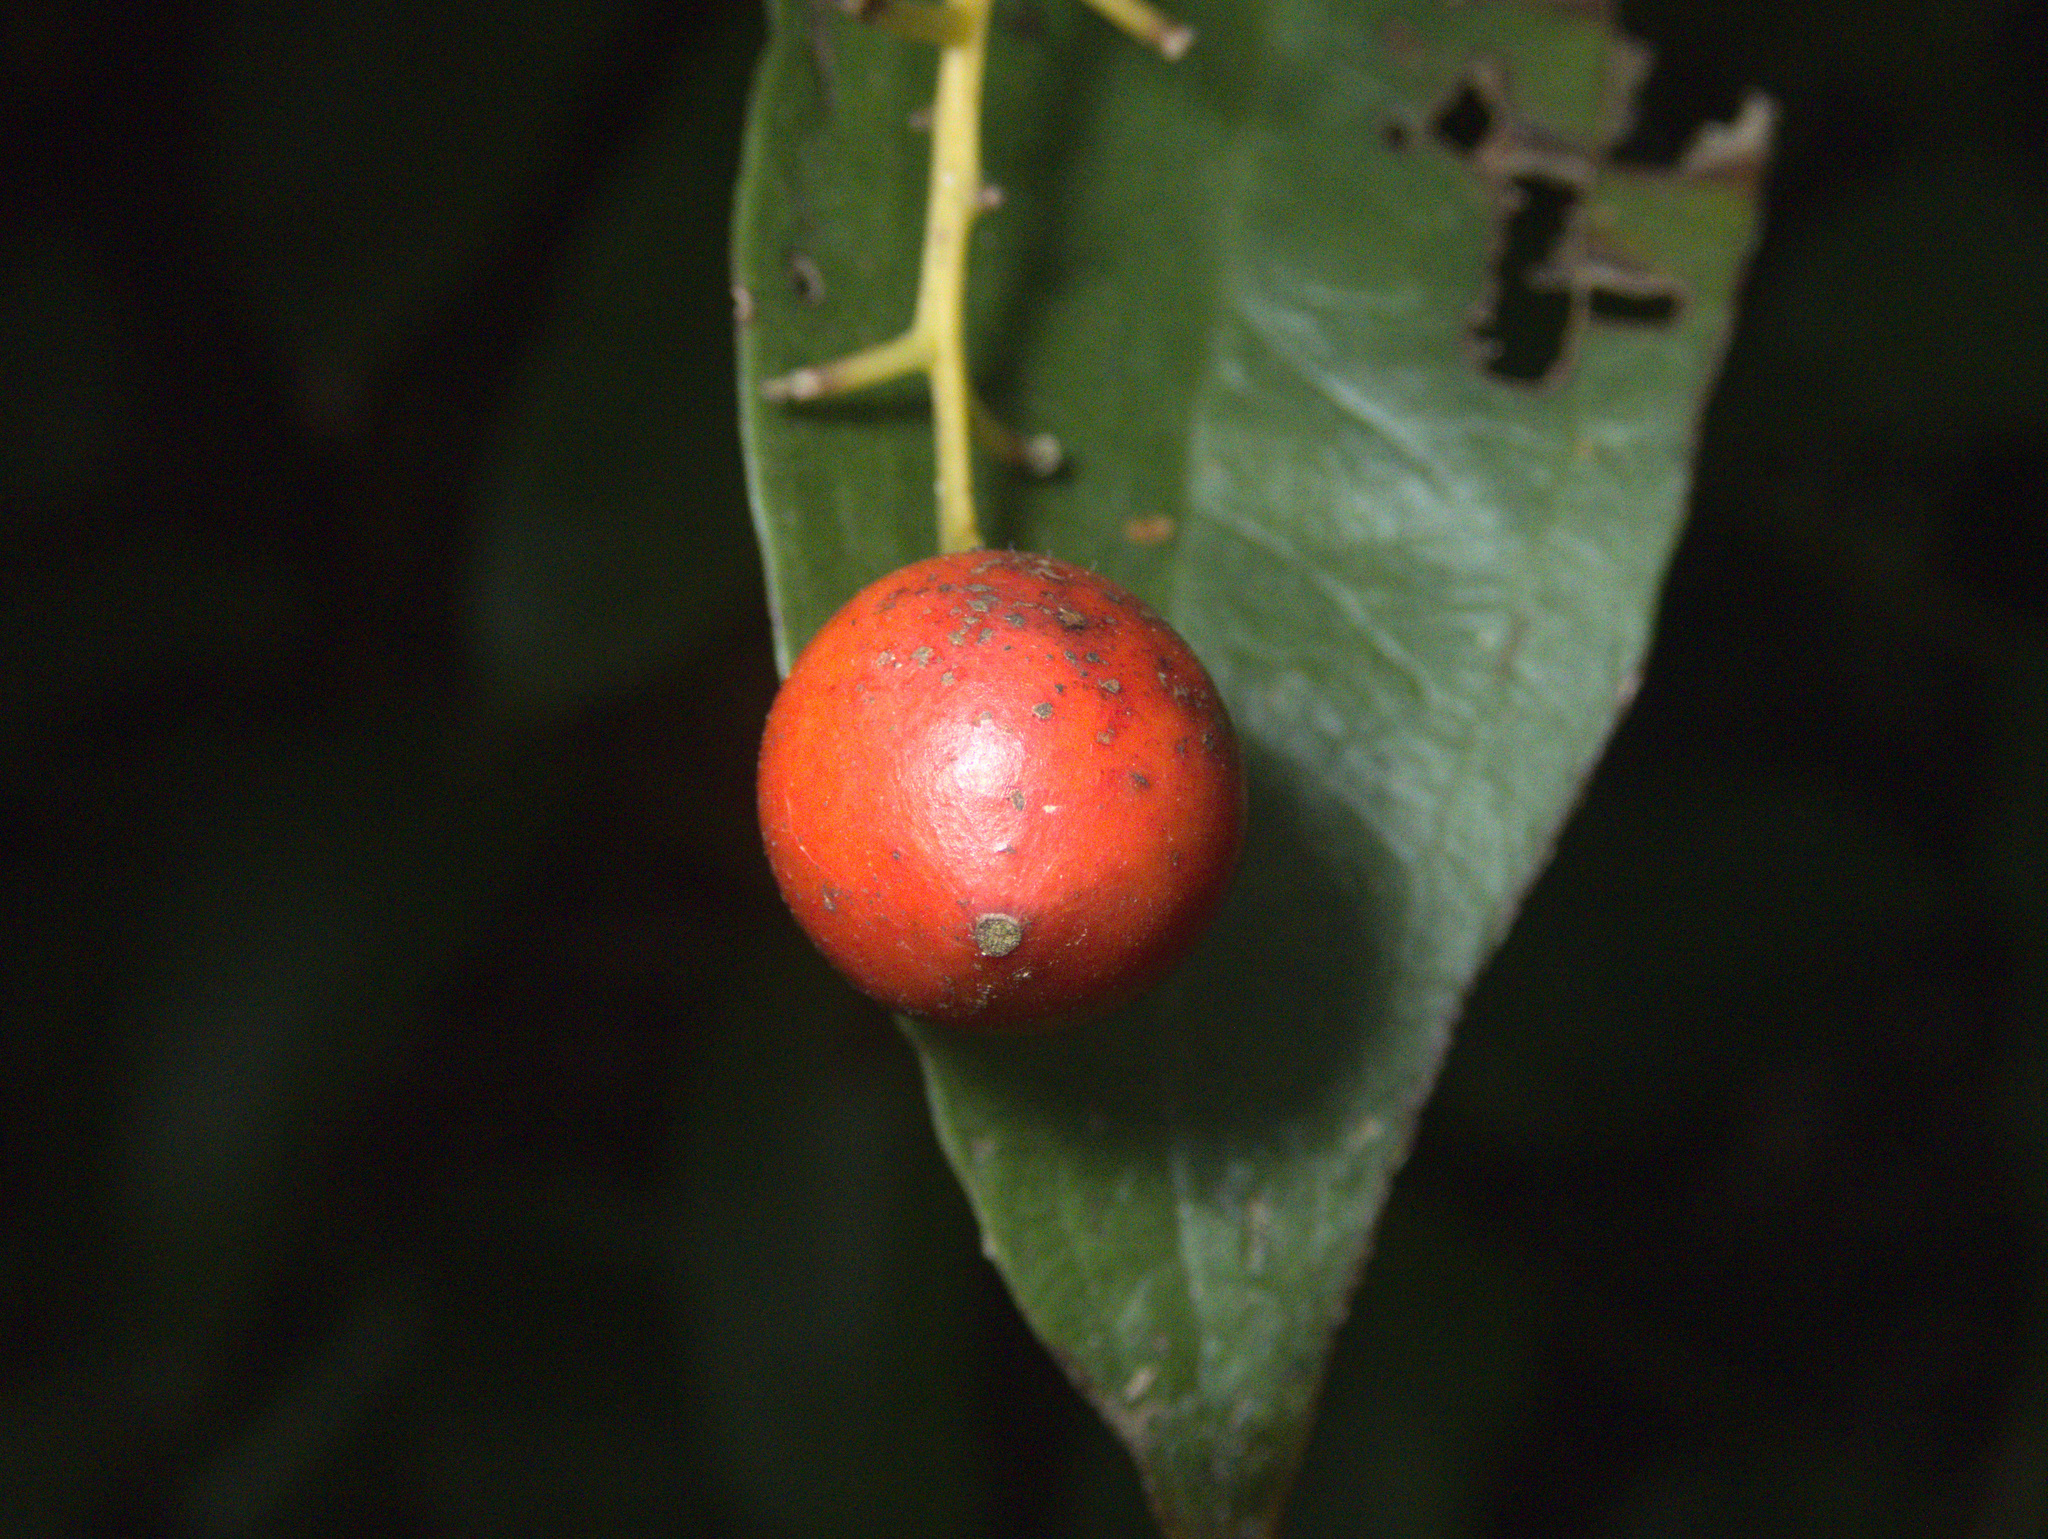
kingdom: Plantae
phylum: Tracheophyta
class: Liliopsida
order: Liliales
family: Ripogonaceae
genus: Ripogonum
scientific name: Ripogonum scandens
